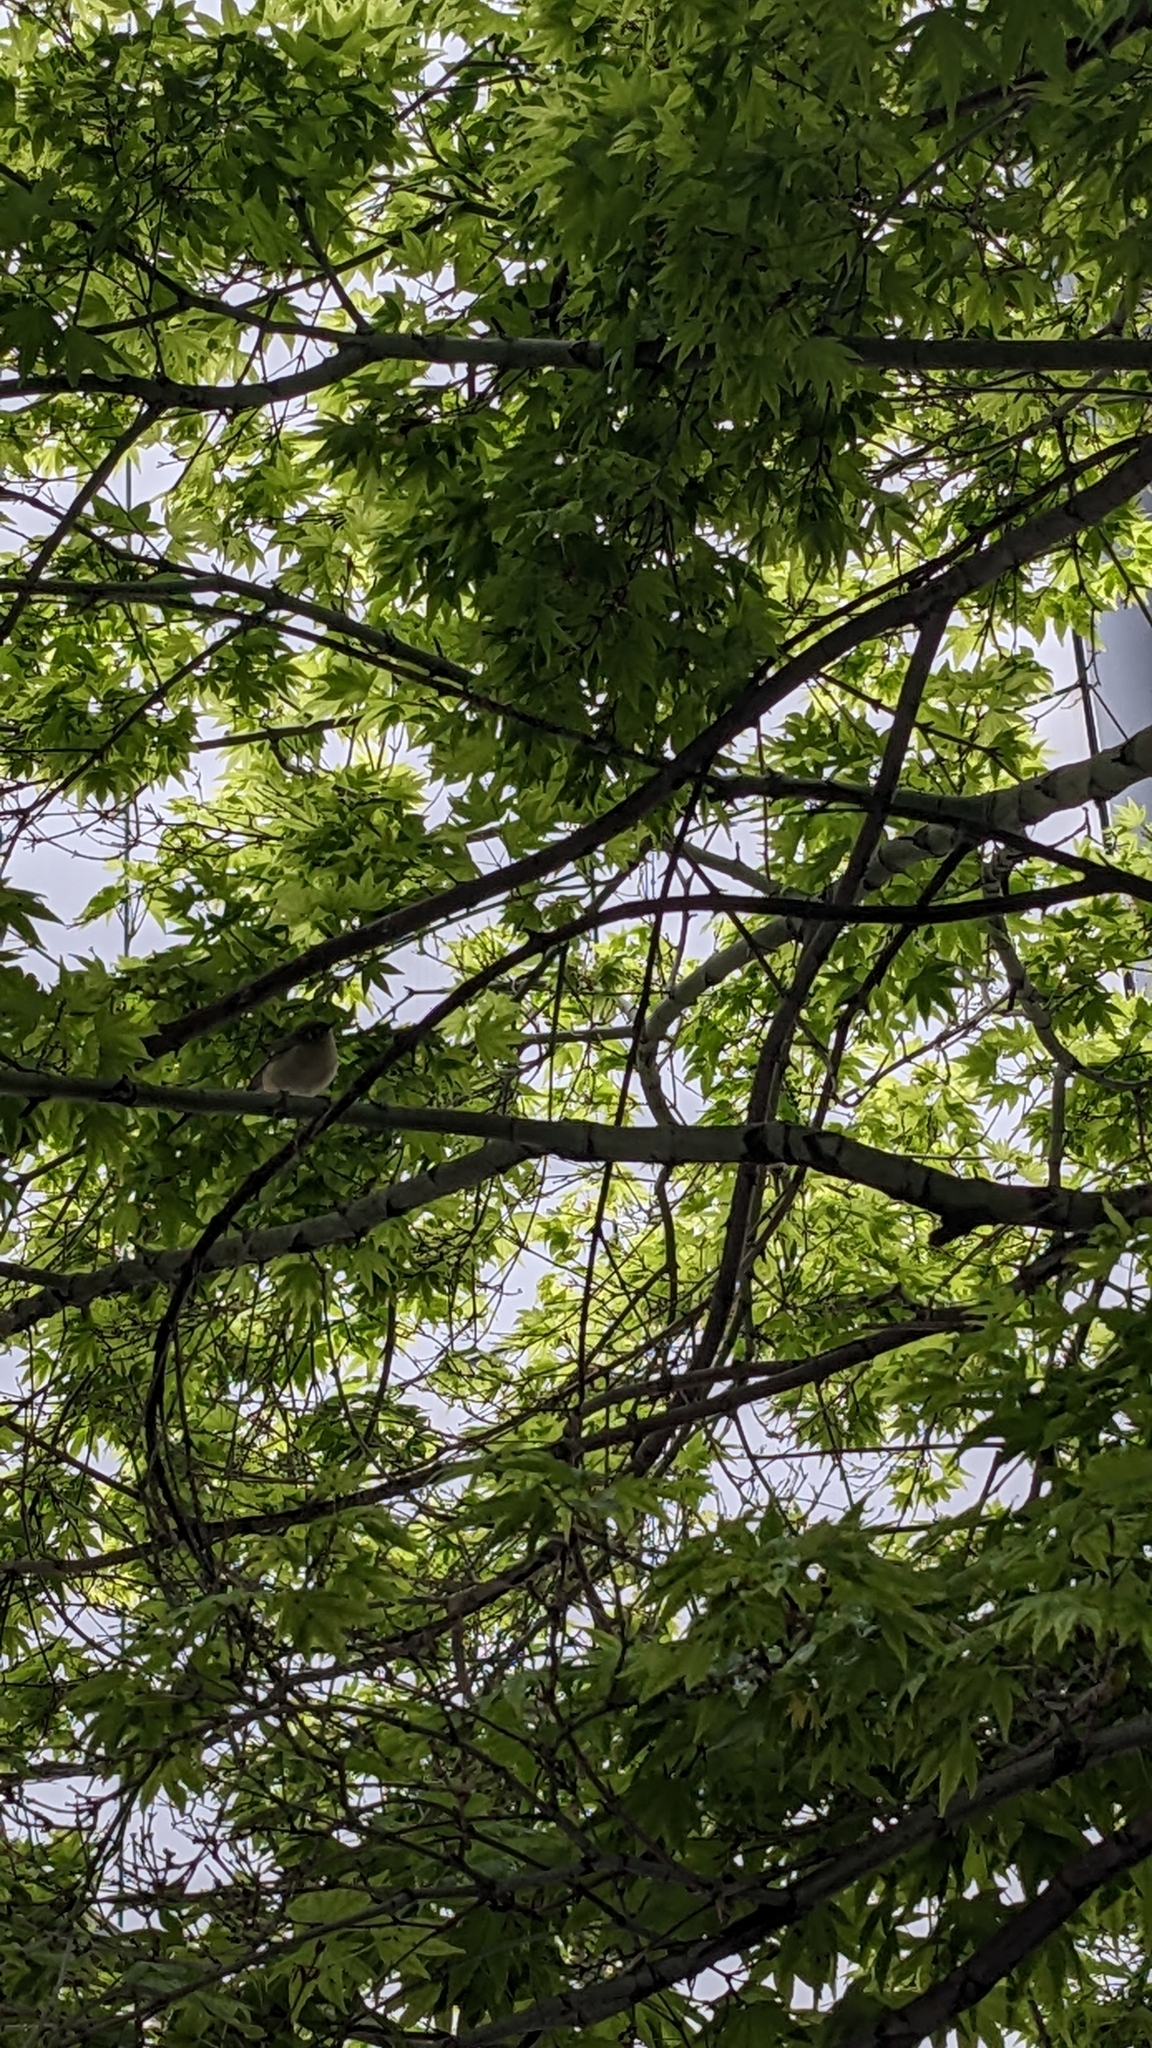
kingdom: Animalia
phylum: Chordata
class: Aves
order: Passeriformes
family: Regulidae
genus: Regulus
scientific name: Regulus calendula
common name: Ruby-crowned kinglet
